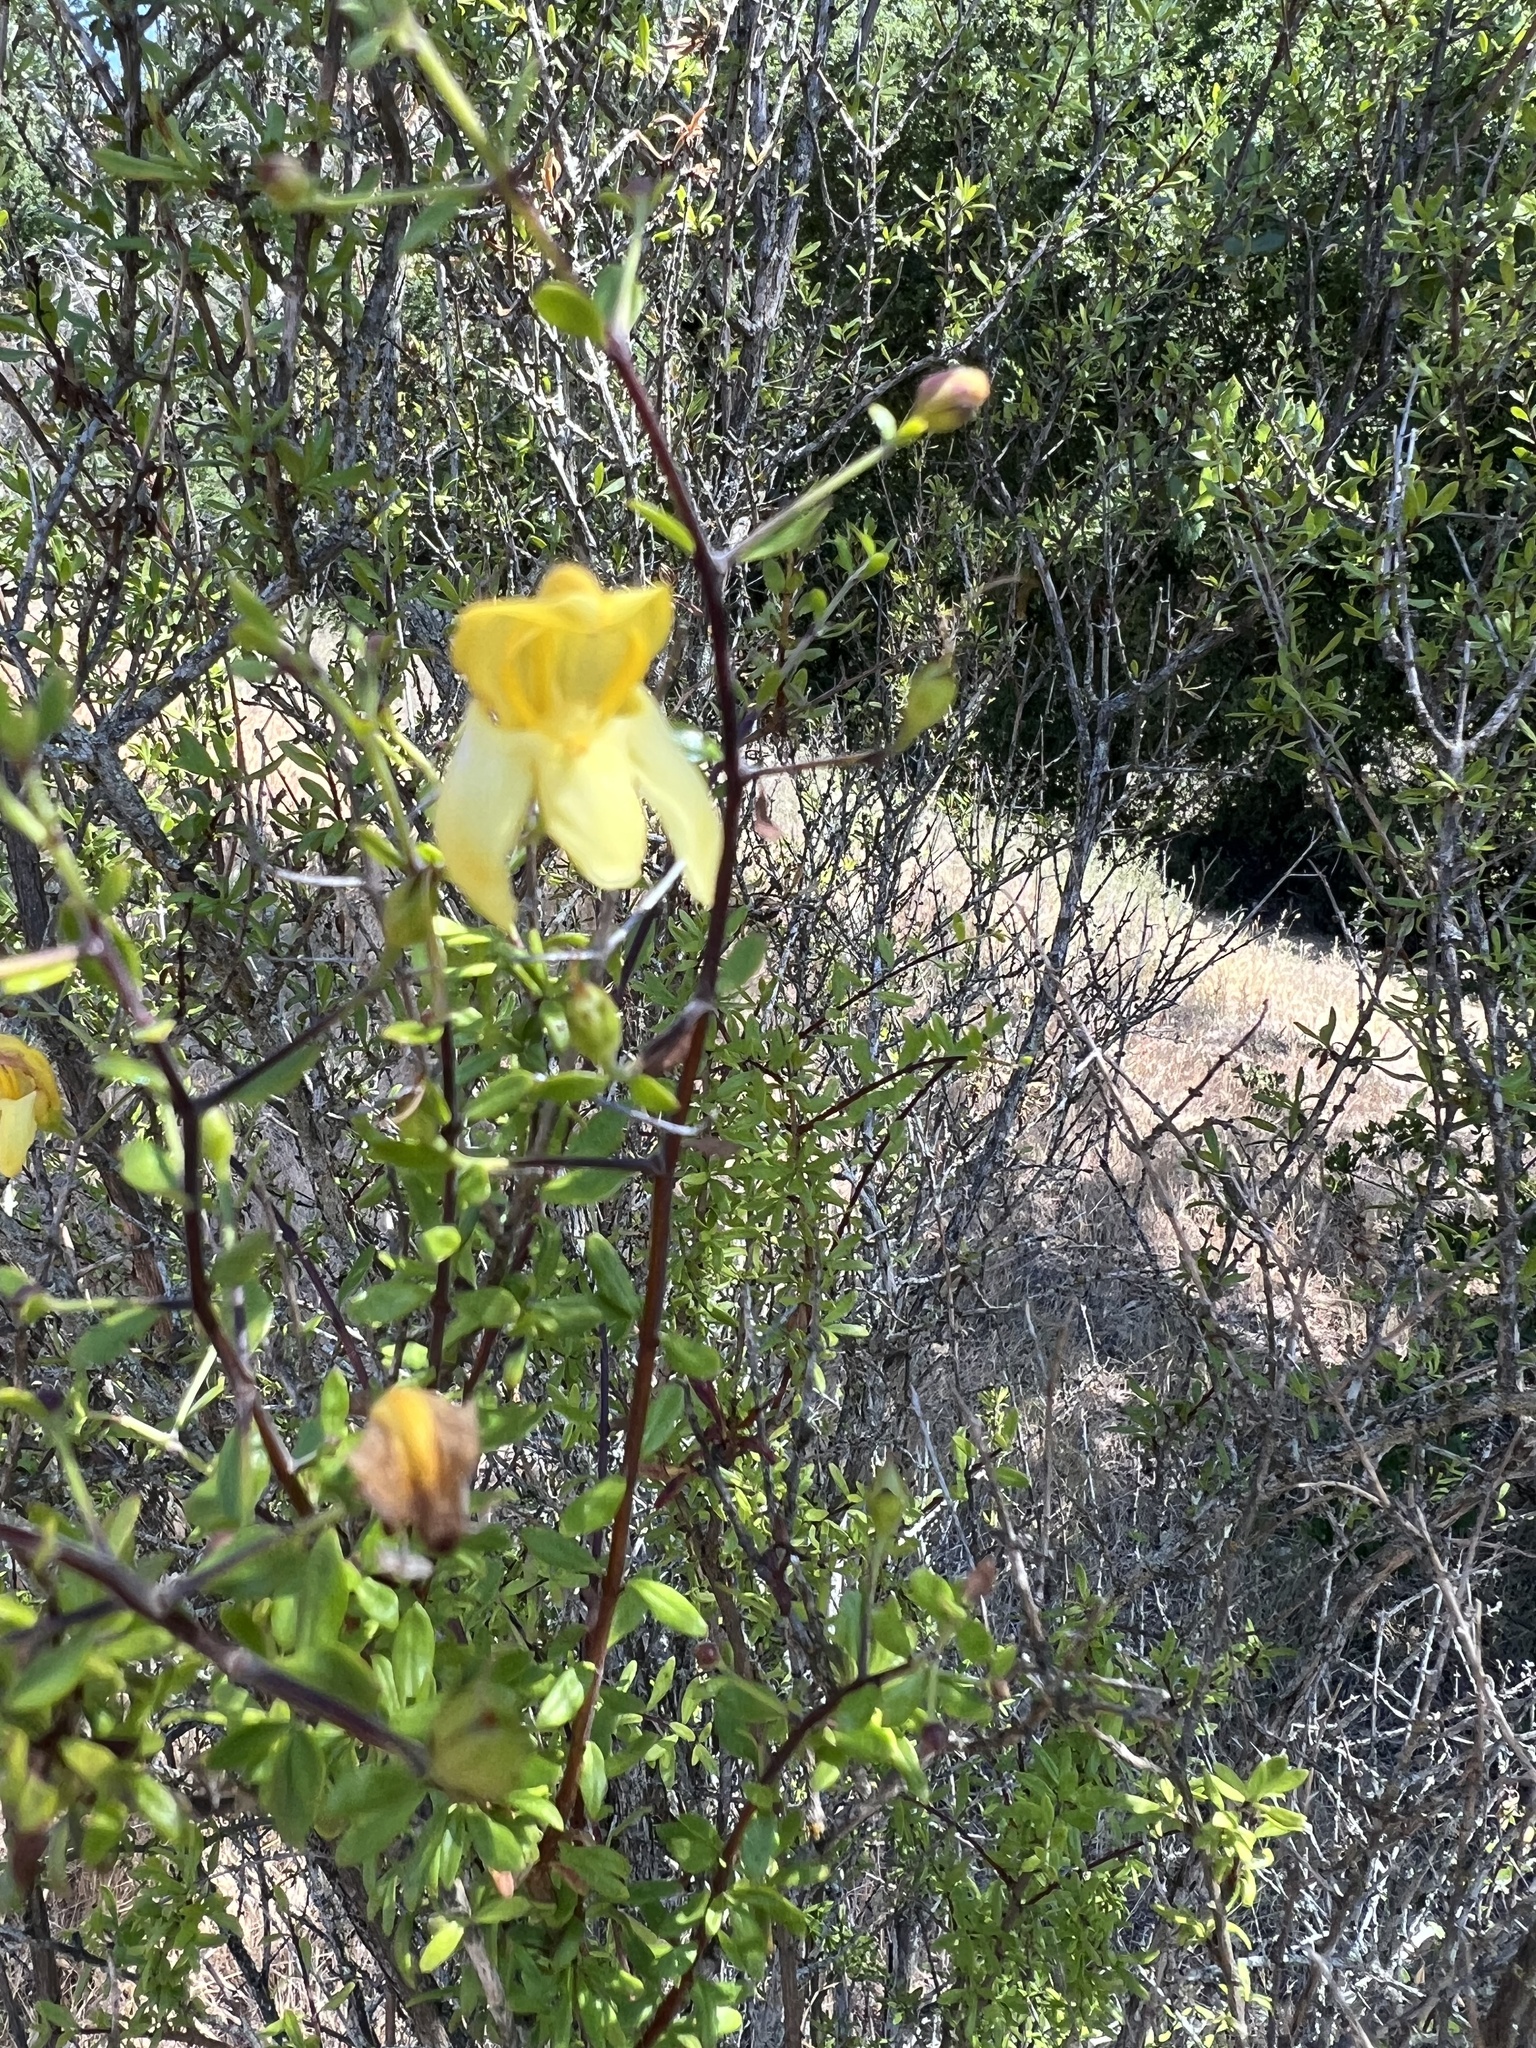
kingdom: Plantae
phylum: Tracheophyta
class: Magnoliopsida
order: Lamiales
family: Plantaginaceae
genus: Keckiella
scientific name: Keckiella antirrhinoides
